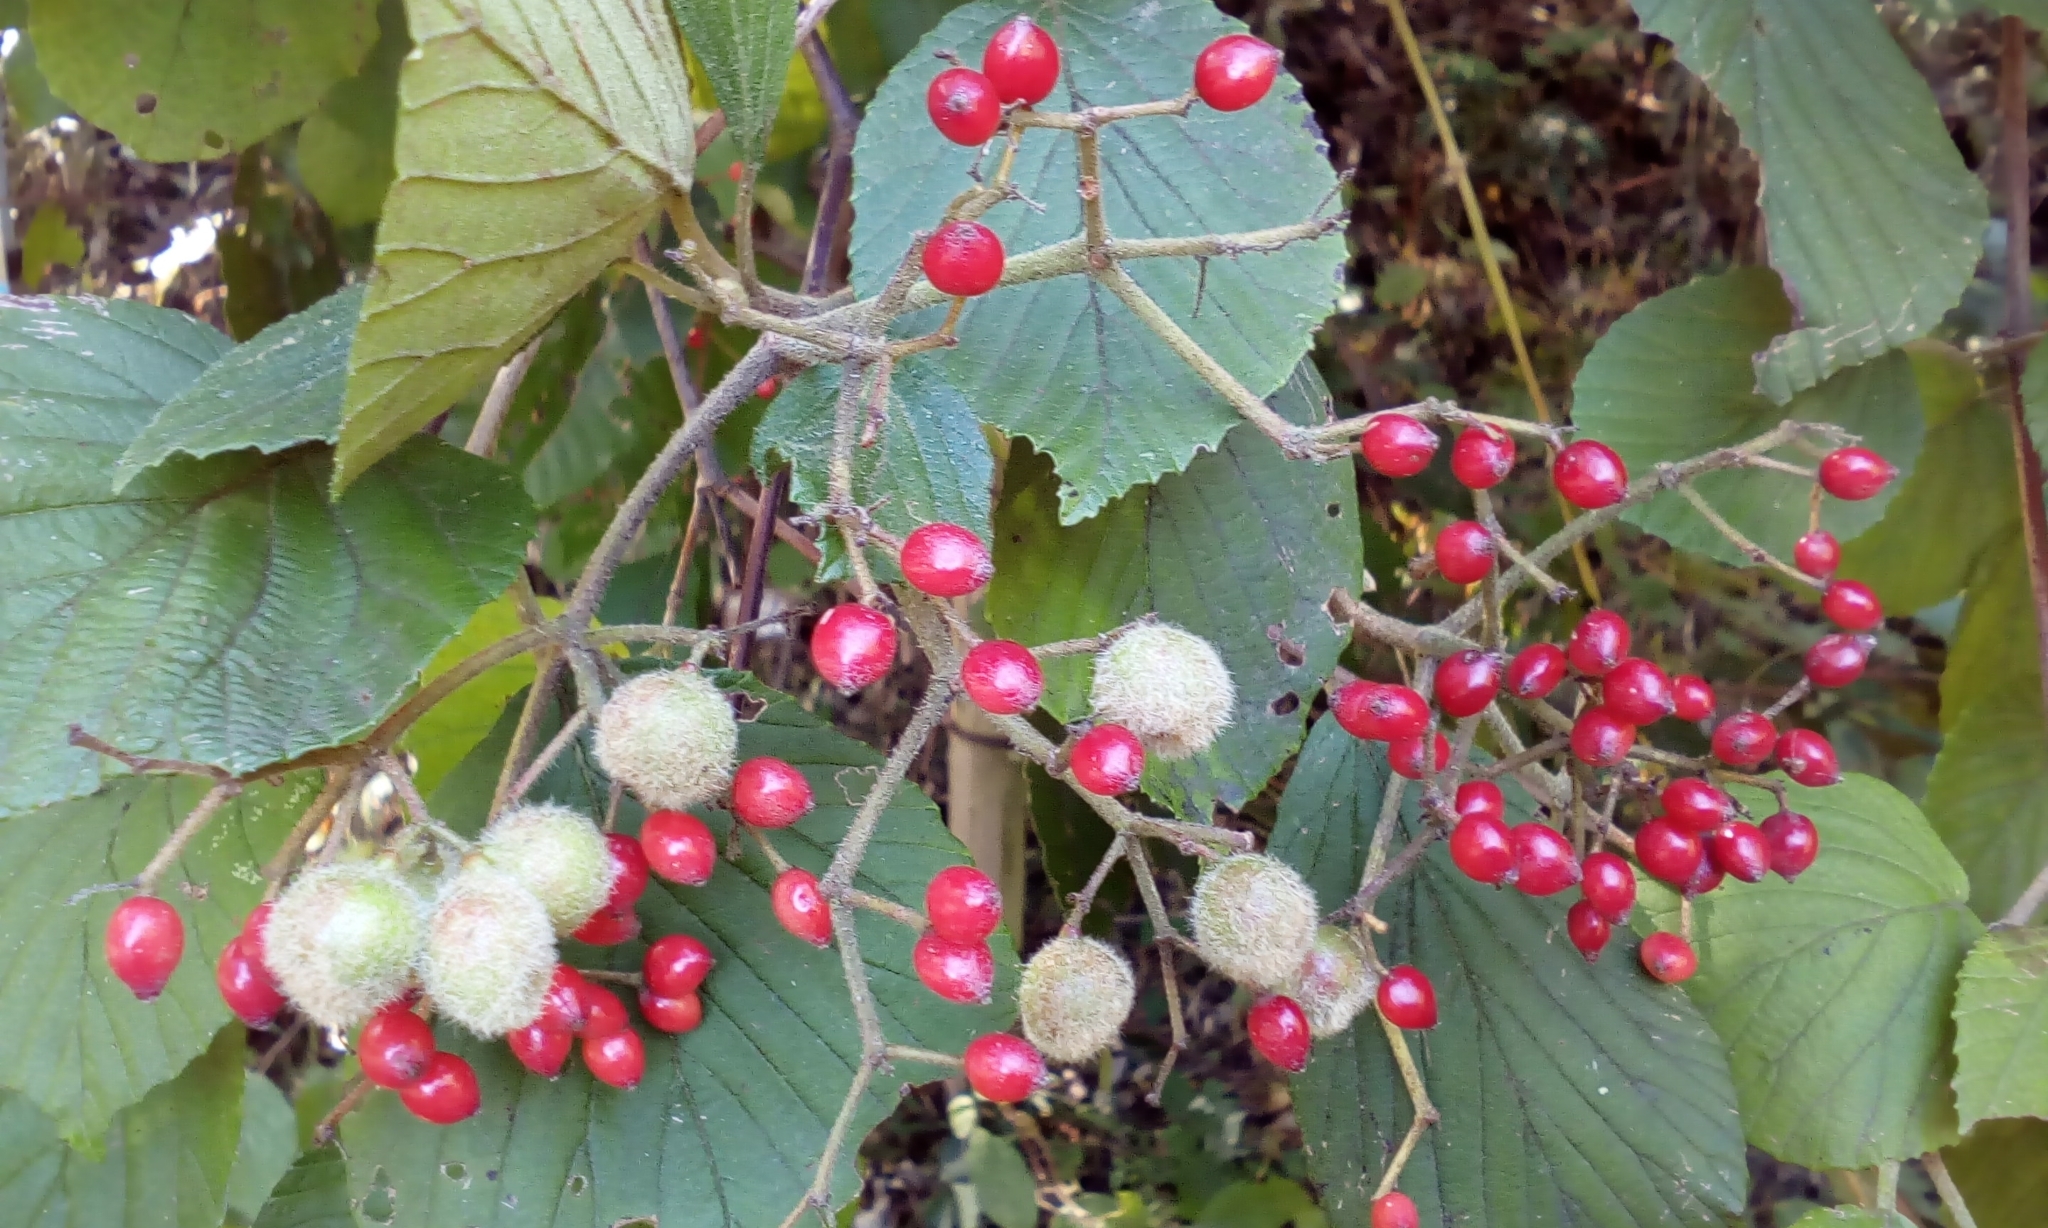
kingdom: Plantae
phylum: Tracheophyta
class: Magnoliopsida
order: Dipsacales
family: Viburnaceae
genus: Viburnum
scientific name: Viburnum dilatatum
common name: Linden arrowwood
